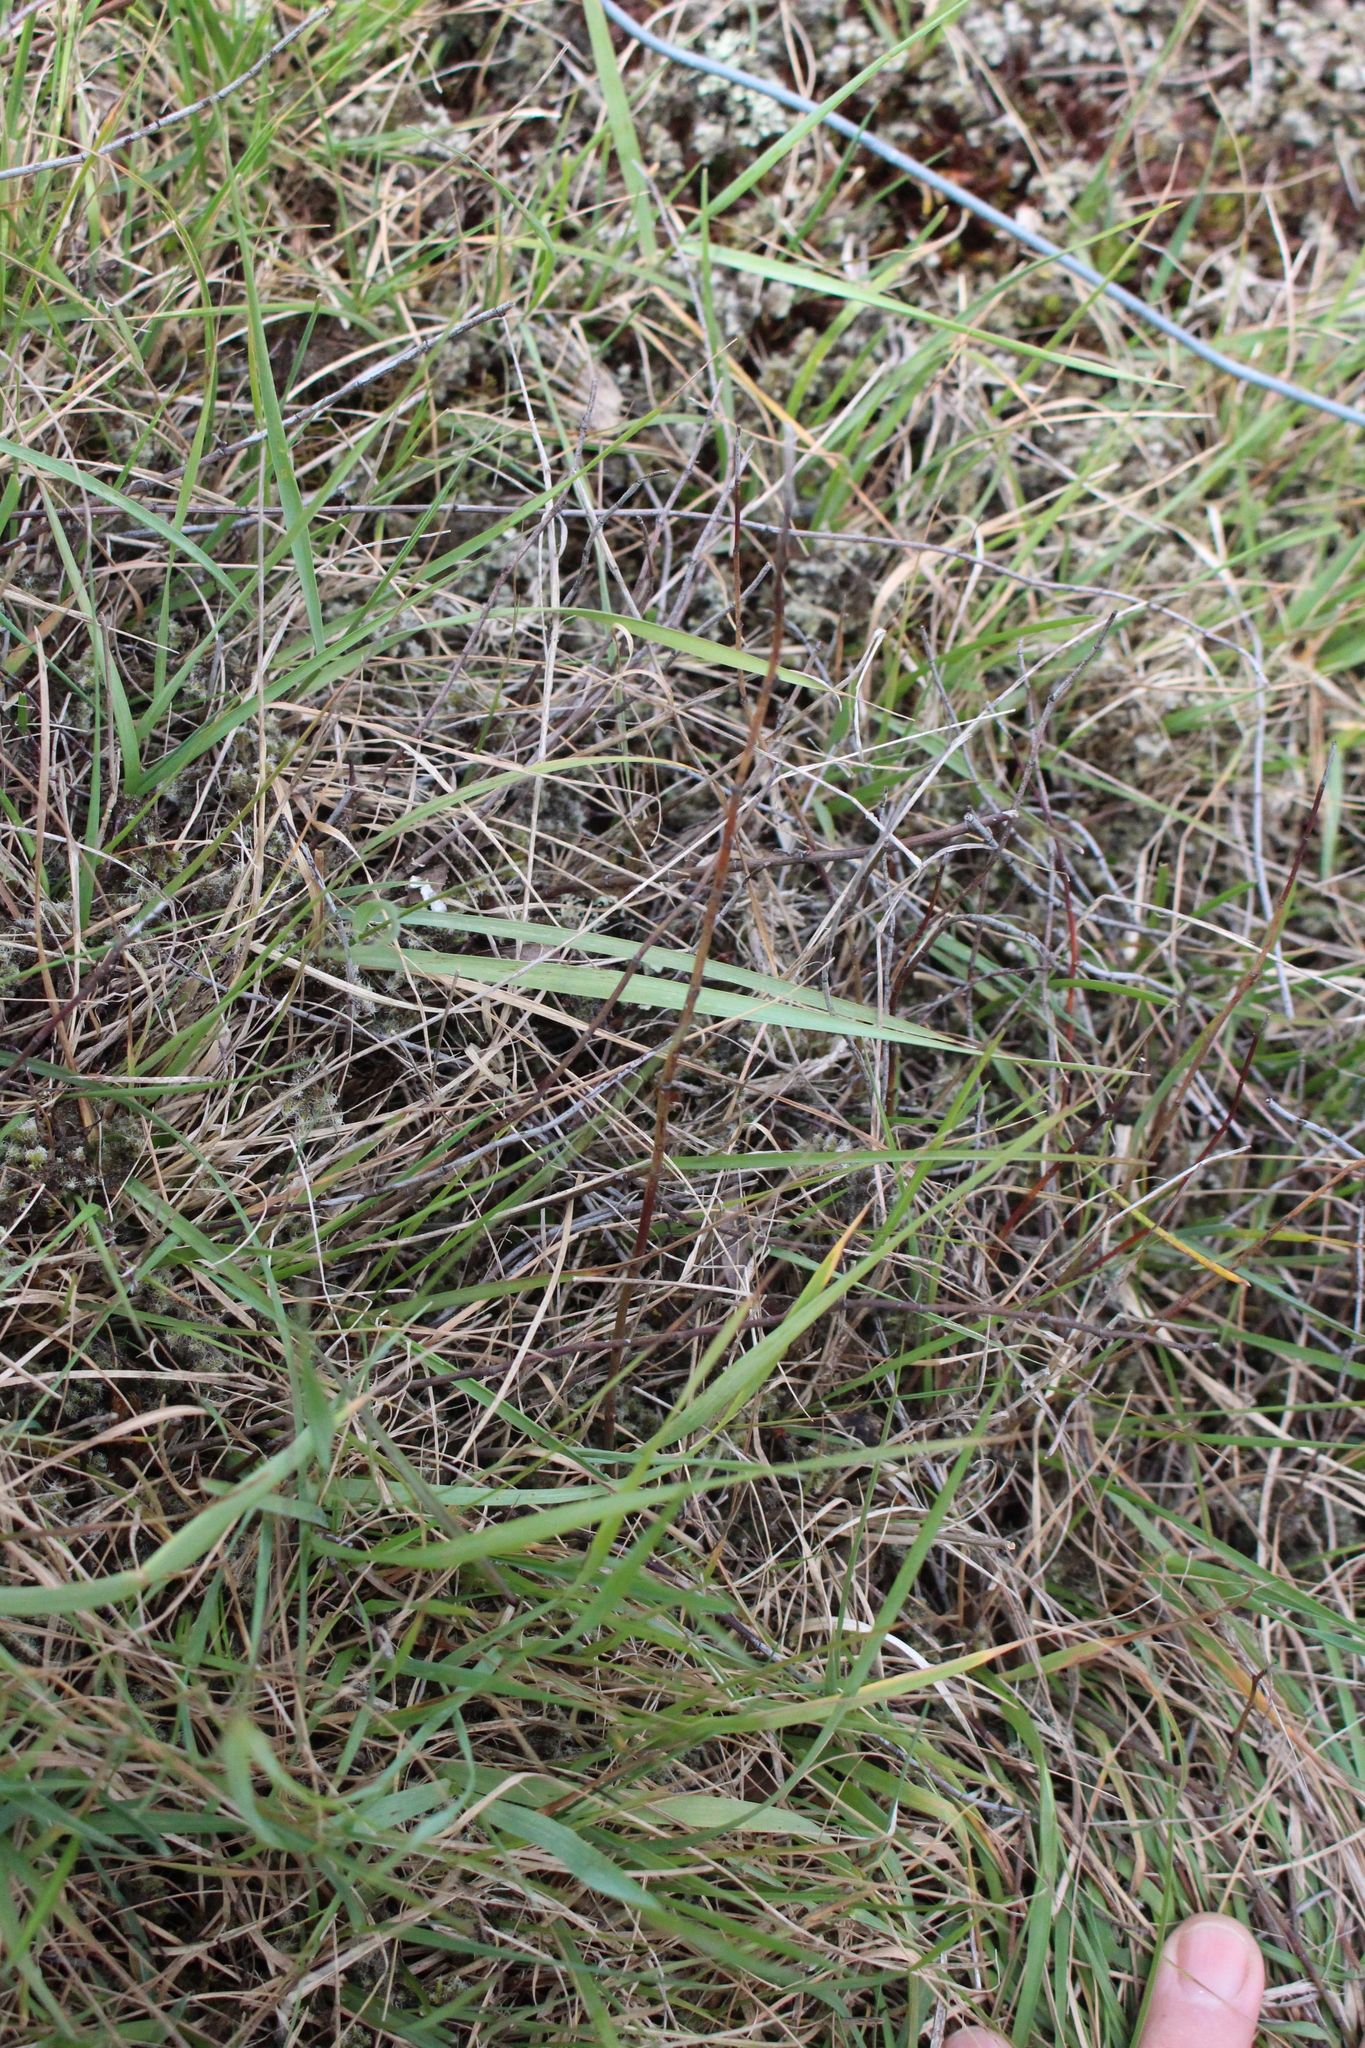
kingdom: Plantae
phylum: Tracheophyta
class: Magnoliopsida
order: Caryophyllales
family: Polygonaceae
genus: Muehlenbeckia
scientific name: Muehlenbeckia ephedroides
